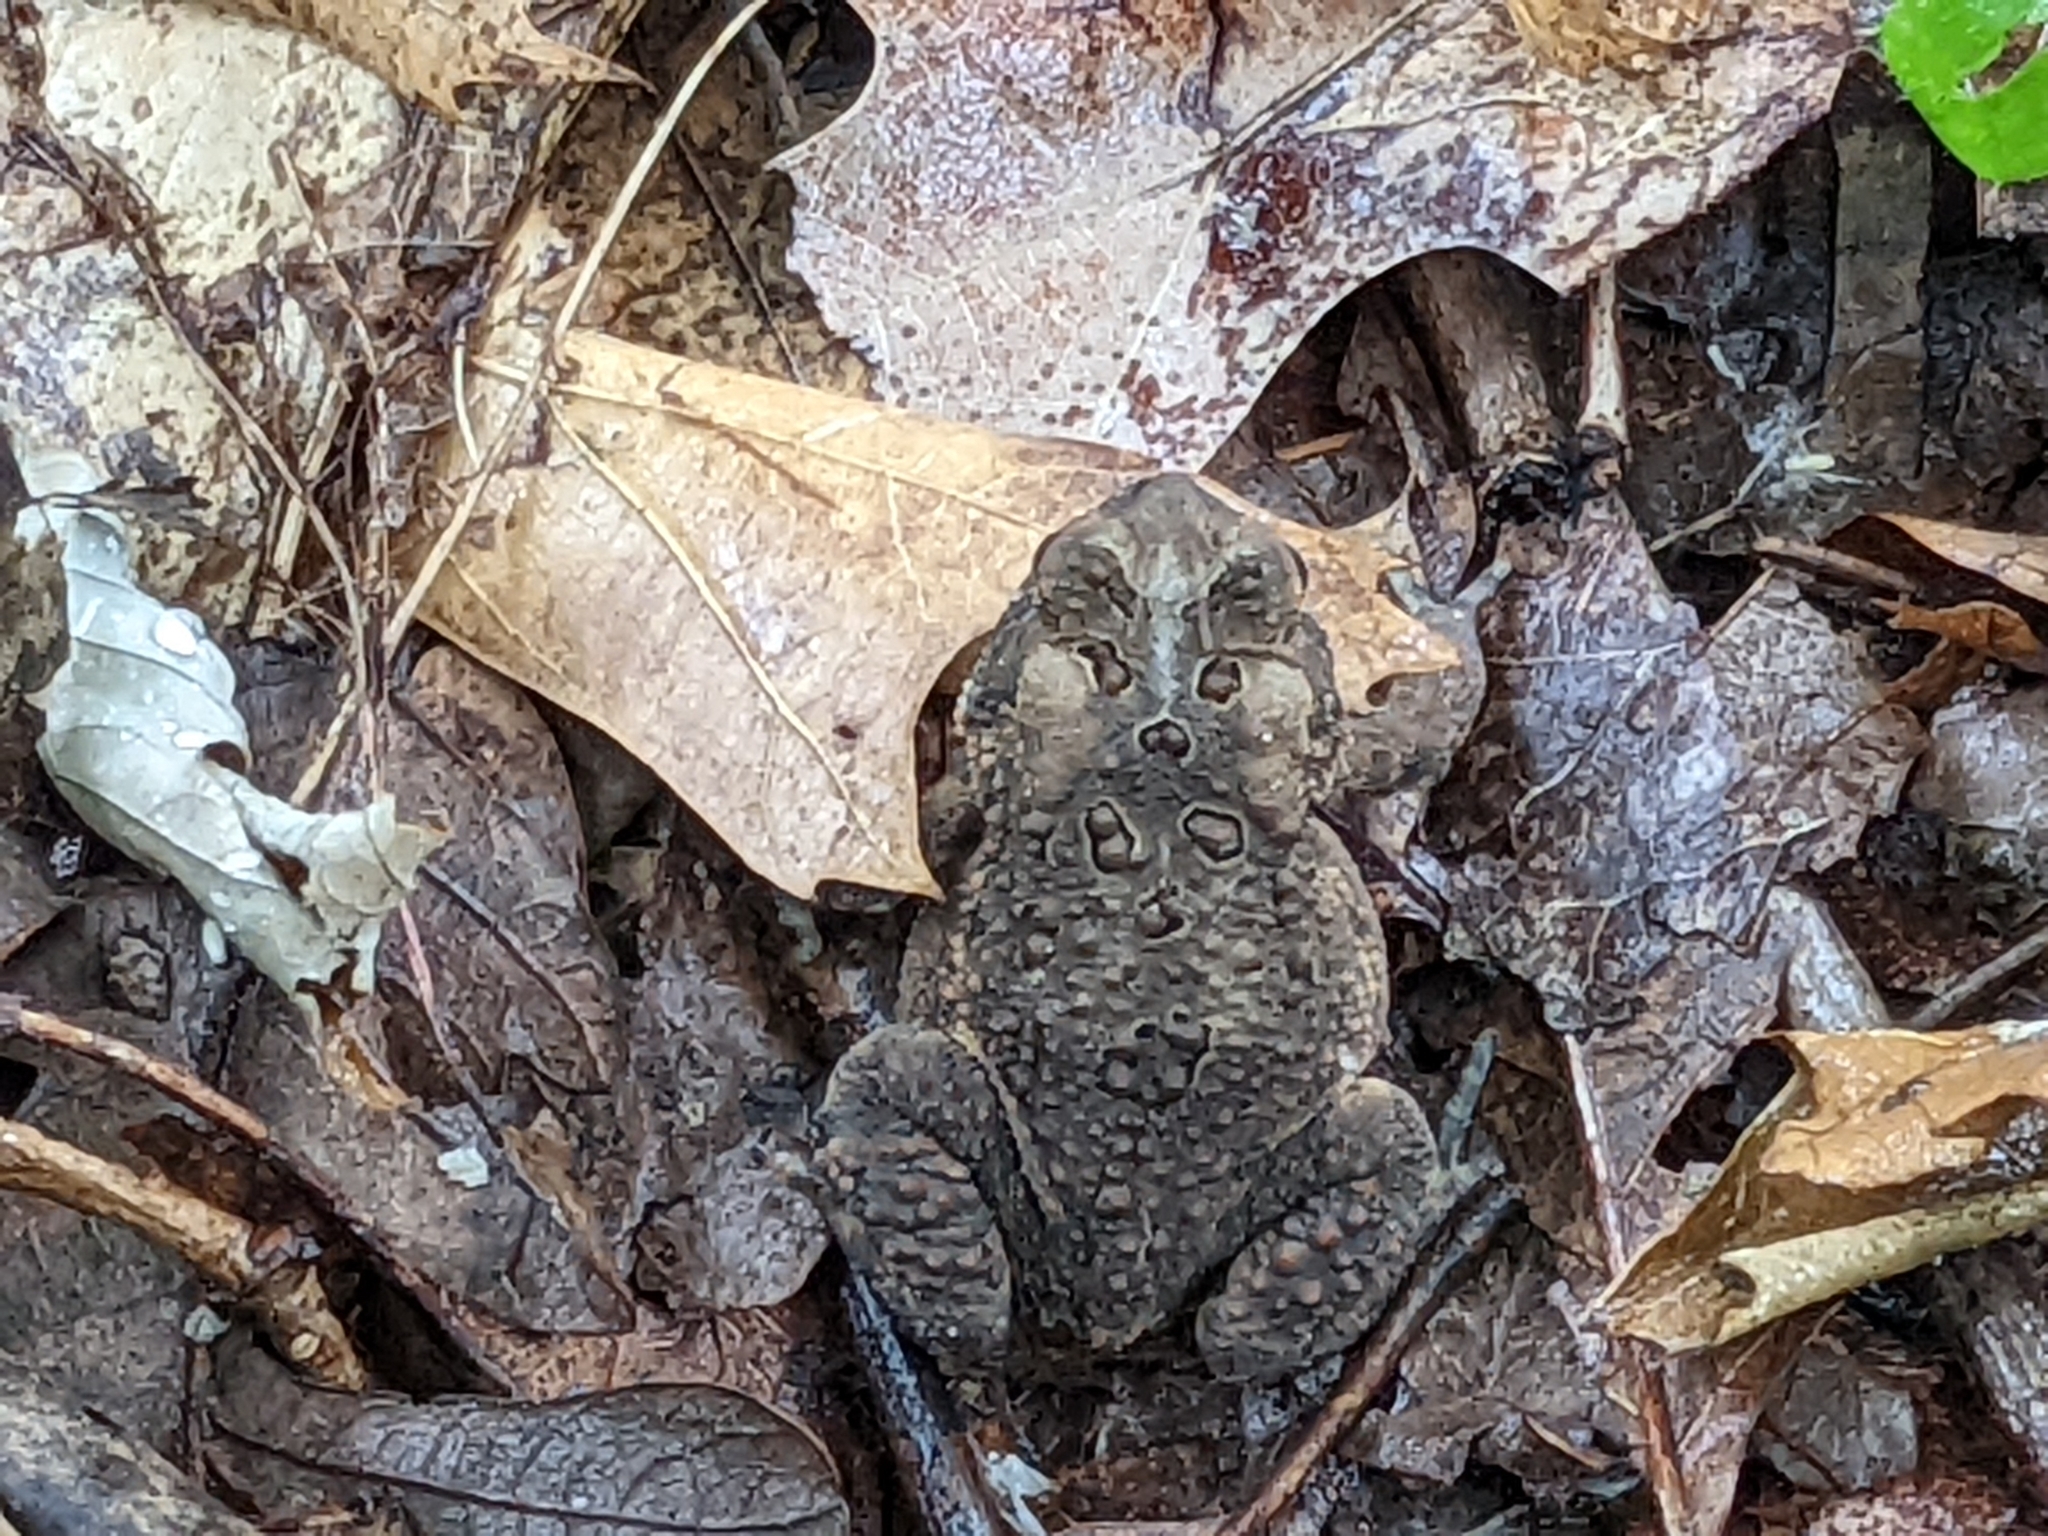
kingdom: Animalia
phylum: Chordata
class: Amphibia
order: Anura
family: Bufonidae
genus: Anaxyrus
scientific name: Anaxyrus americanus
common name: American toad
